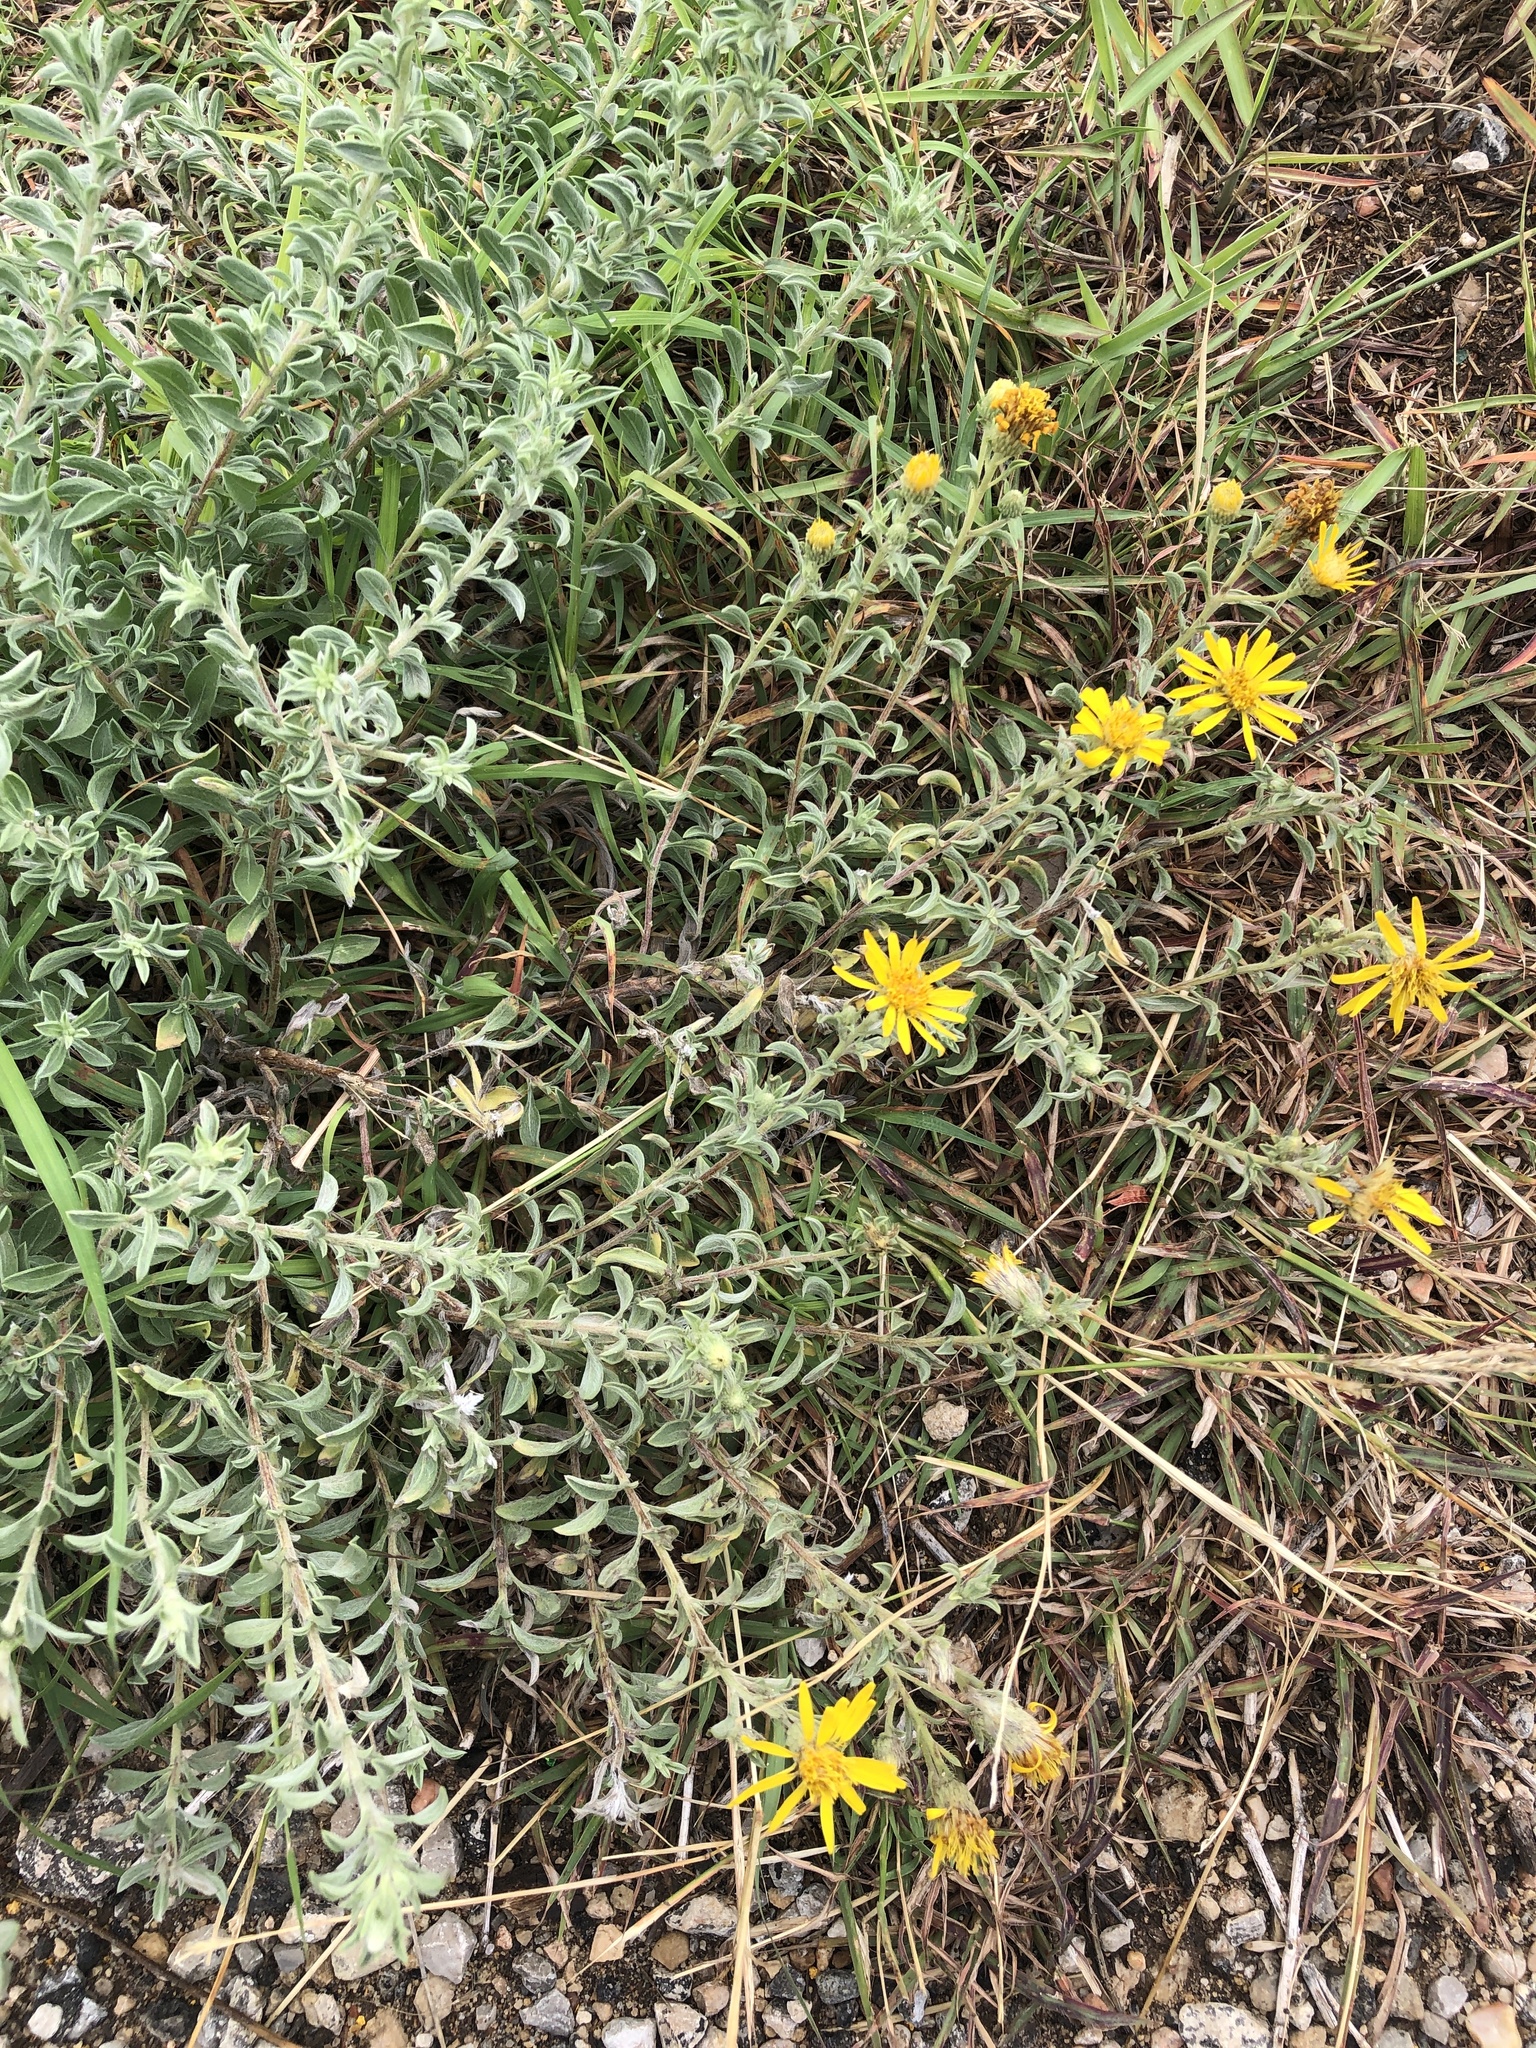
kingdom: Plantae
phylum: Tracheophyta
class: Magnoliopsida
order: Asterales
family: Asteraceae
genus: Heterotheca
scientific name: Heterotheca canescens
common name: Hoary golden-aster
